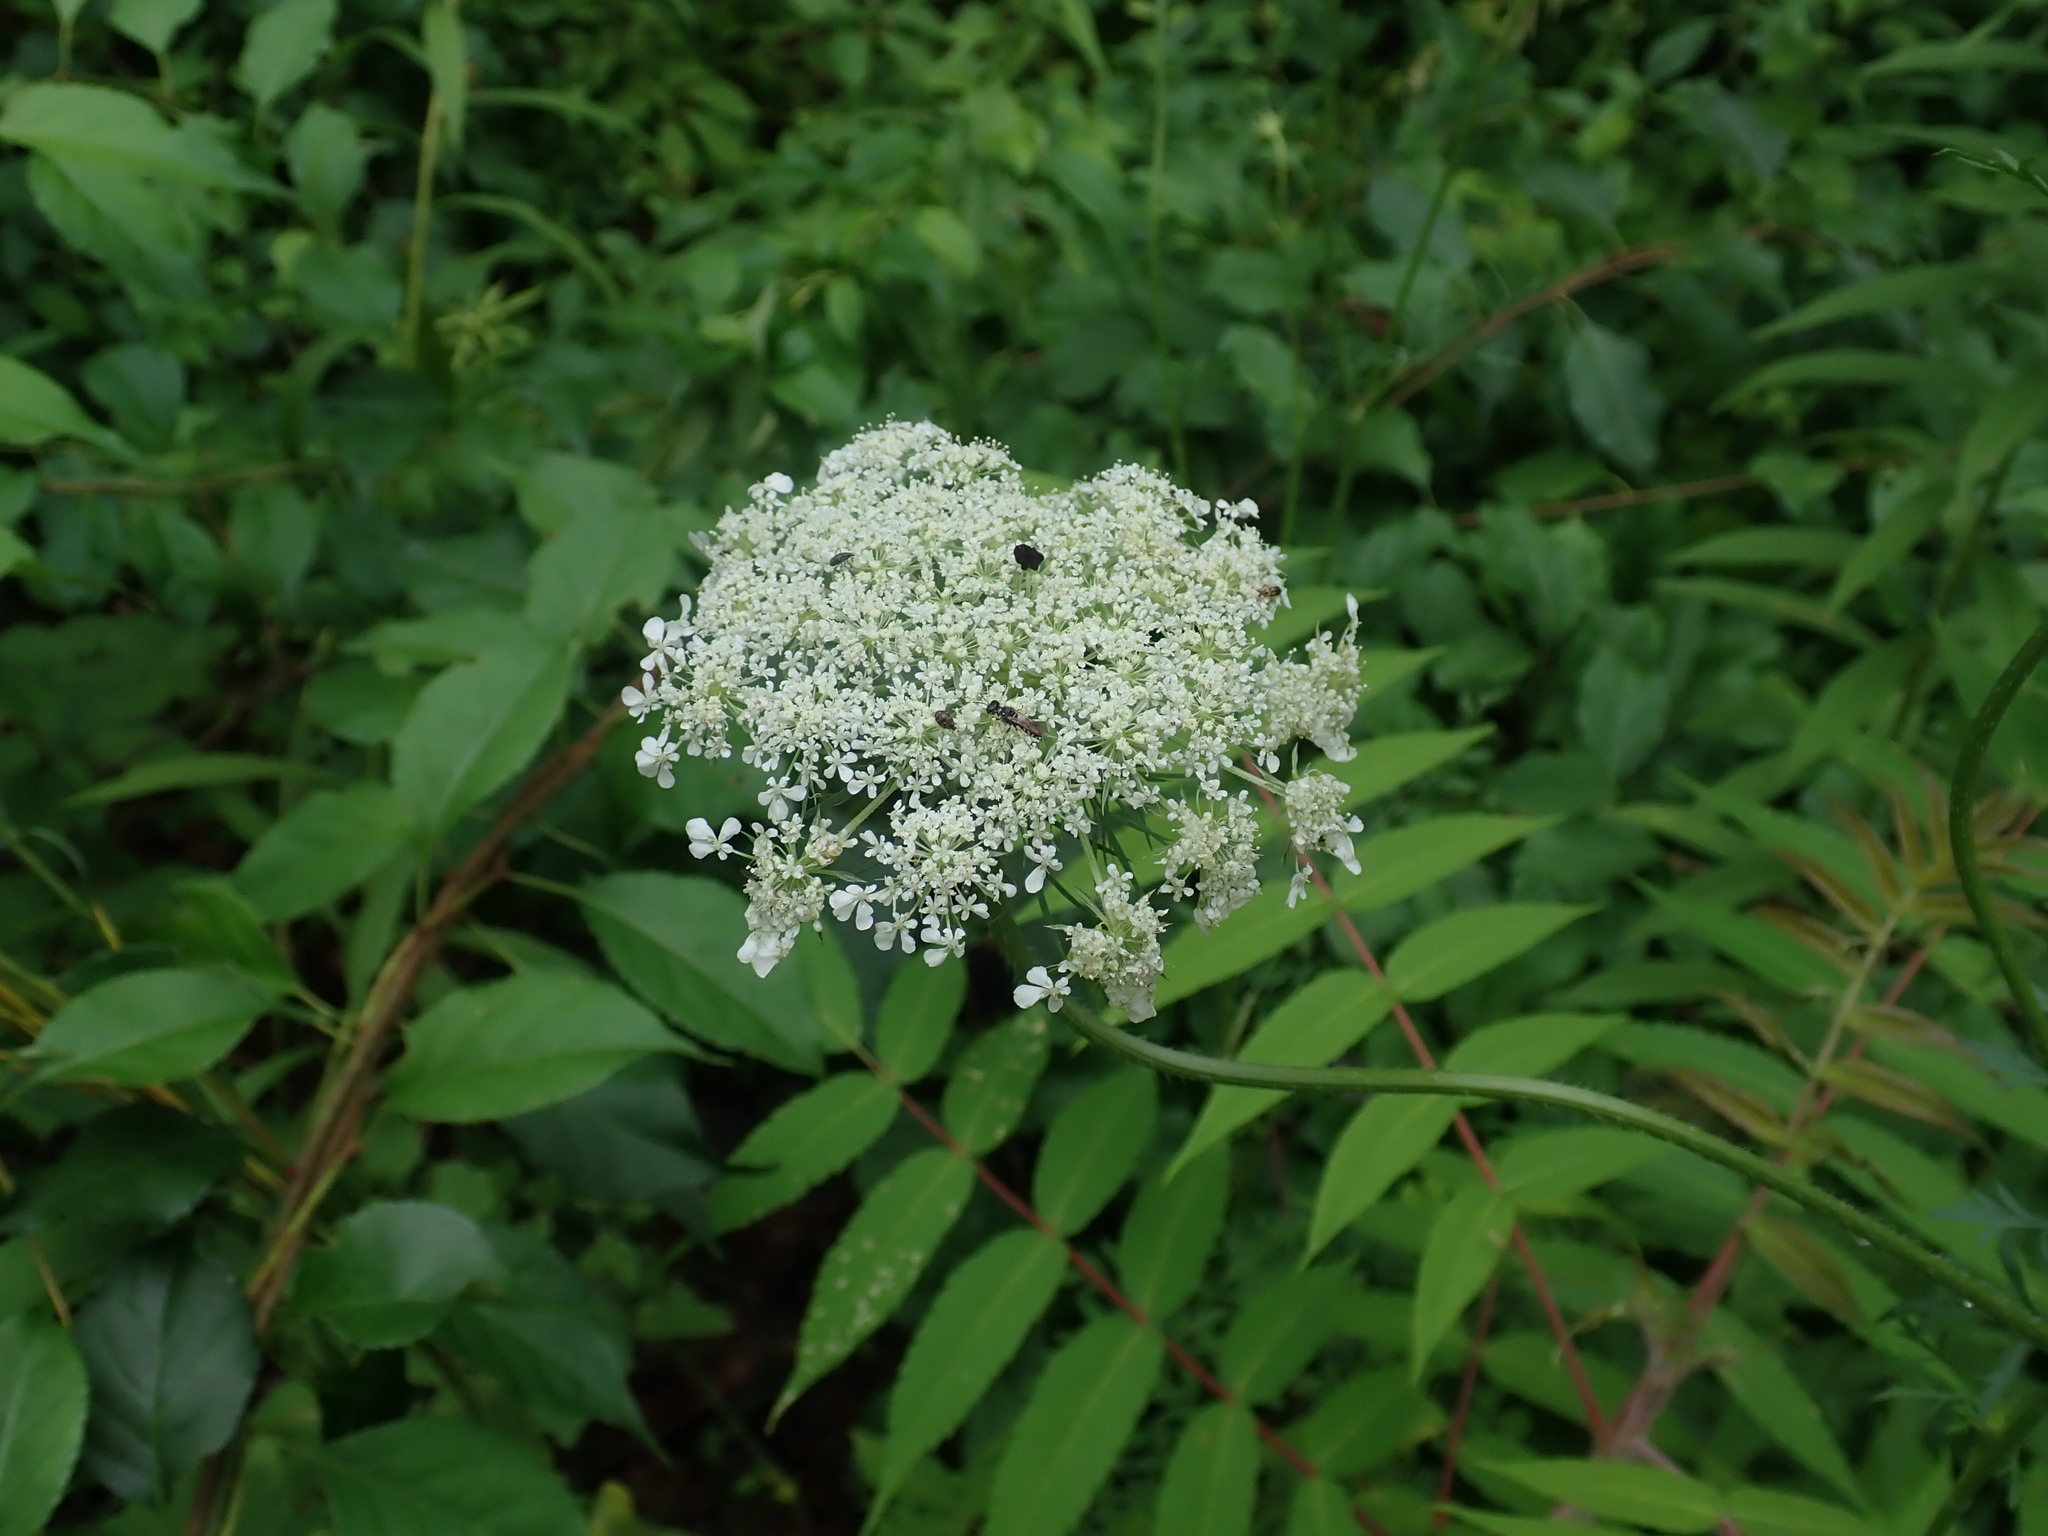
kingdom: Plantae
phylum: Tracheophyta
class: Magnoliopsida
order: Apiales
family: Apiaceae
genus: Daucus
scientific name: Daucus carota
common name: Wild carrot
